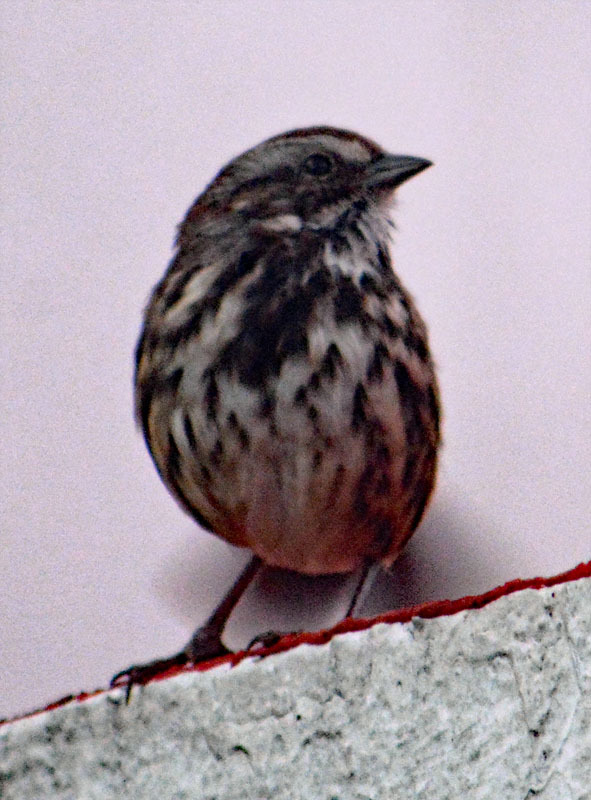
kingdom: Animalia
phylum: Chordata
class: Aves
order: Passeriformes
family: Passerellidae
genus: Melospiza
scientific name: Melospiza melodia
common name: Song sparrow
